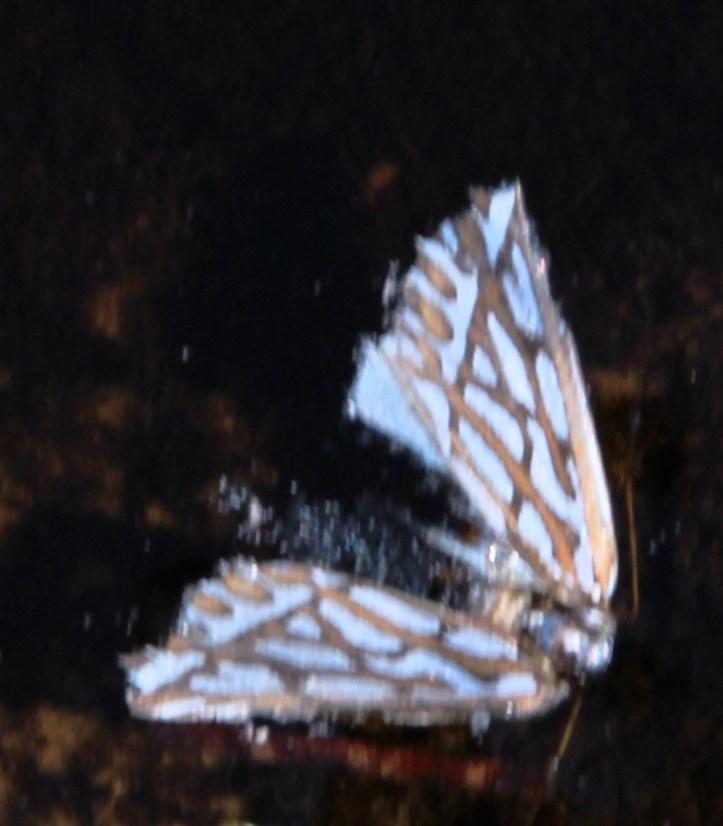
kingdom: Animalia
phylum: Arthropoda
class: Insecta
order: Lepidoptera
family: Geometridae
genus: Argyrophora
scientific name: Argyrophora trofonia
